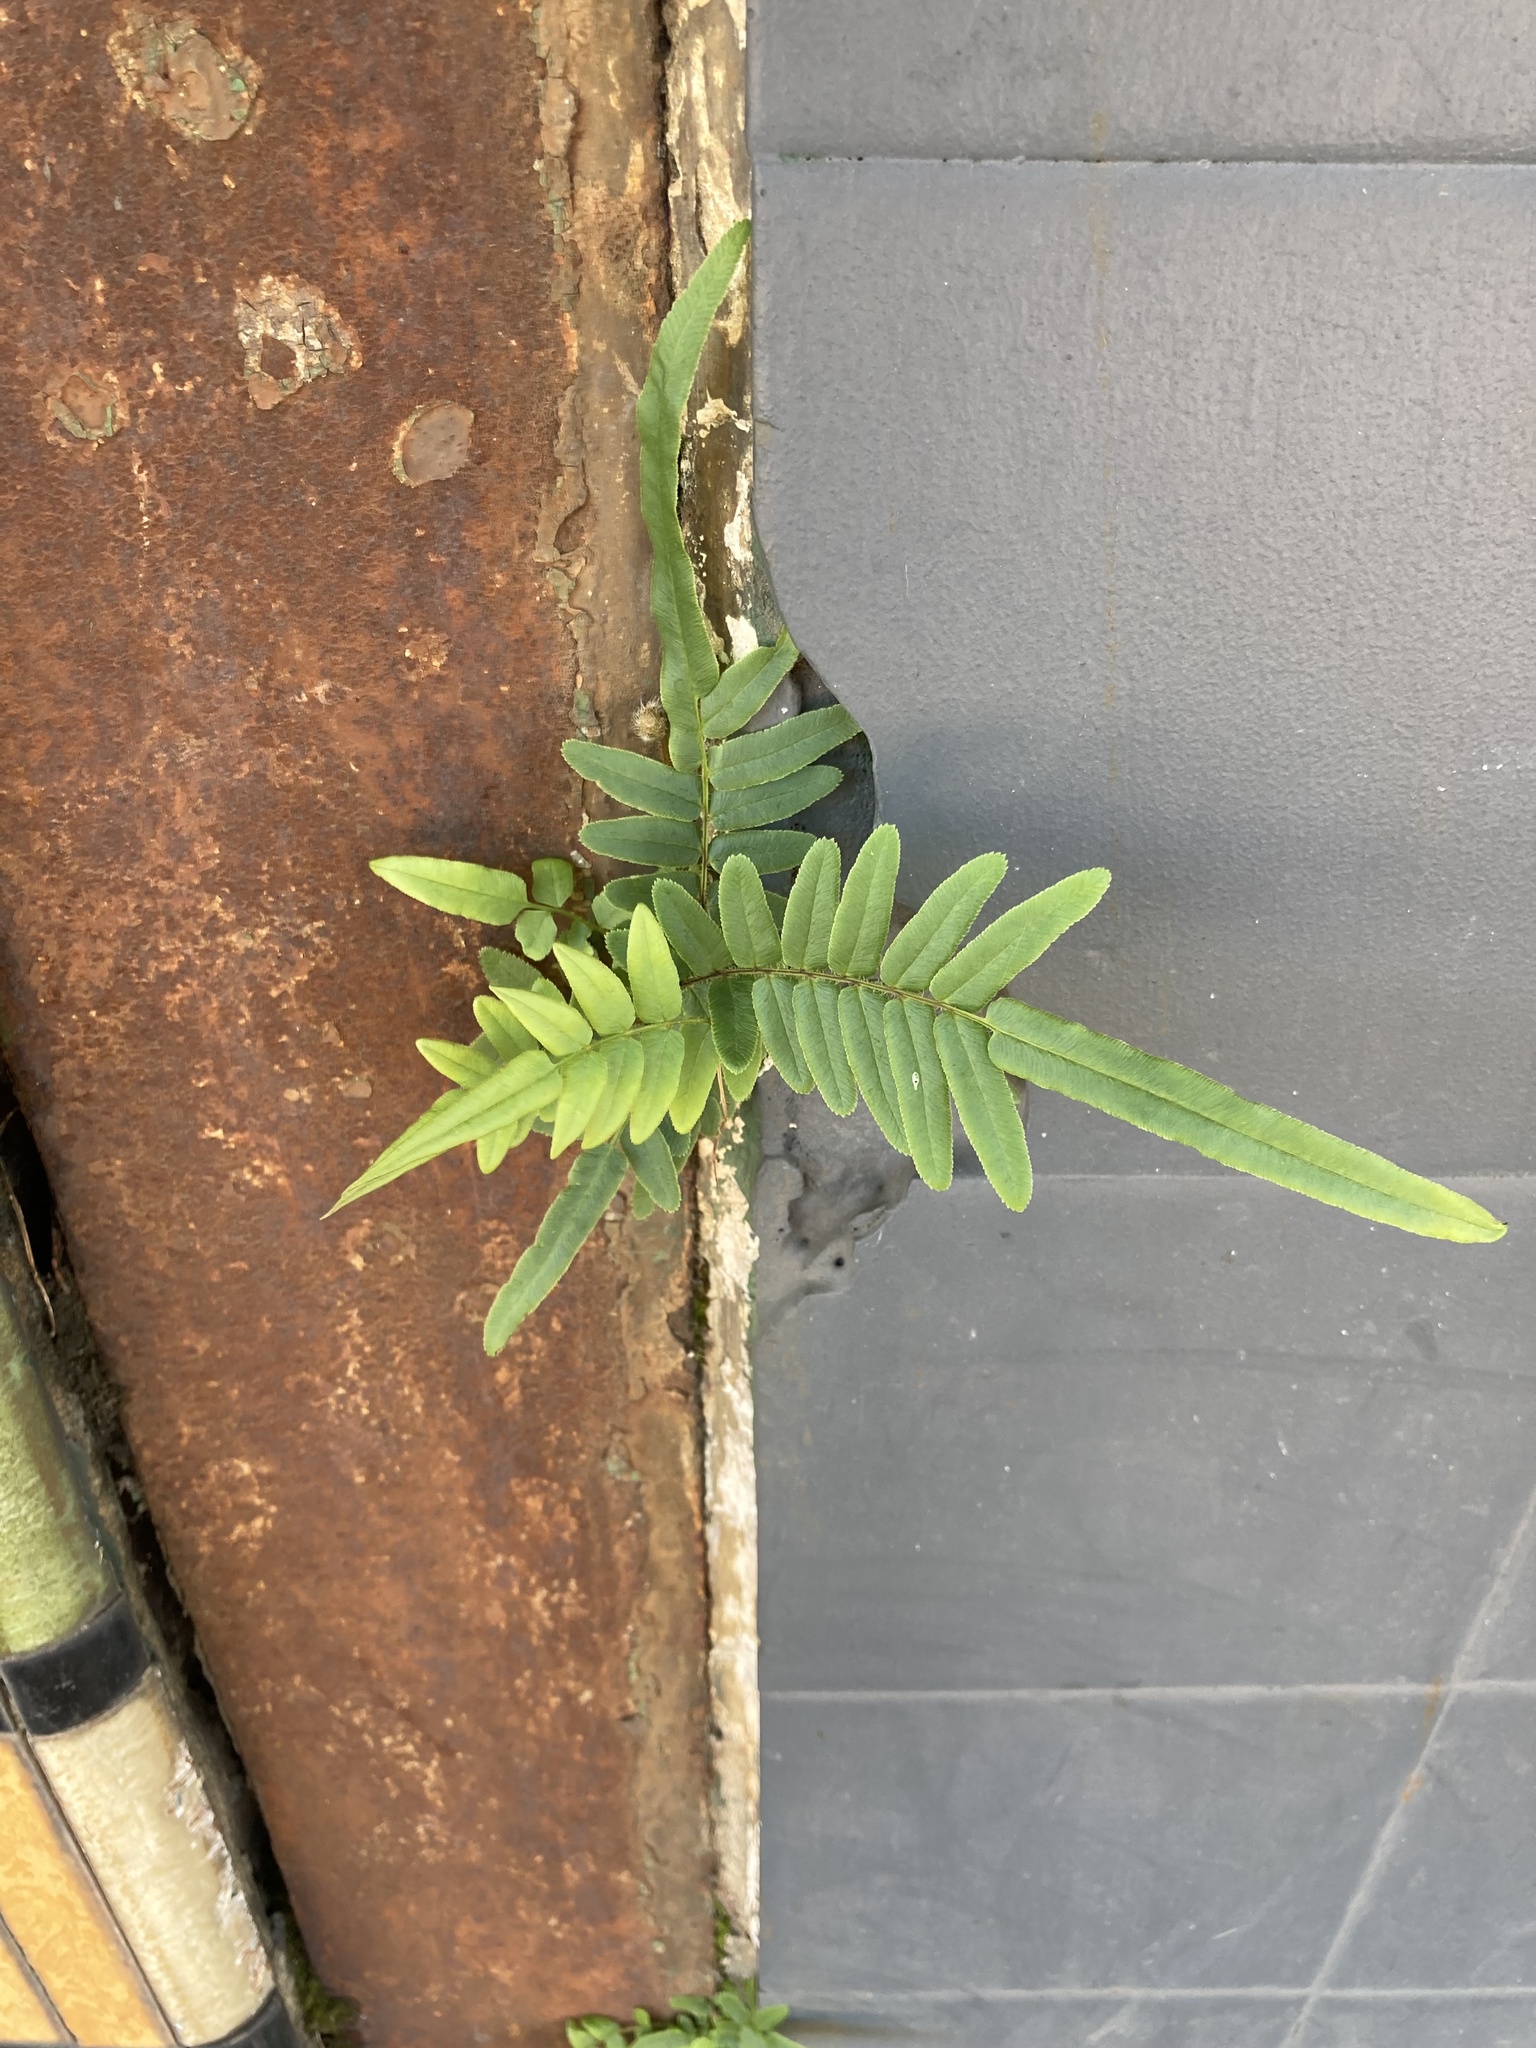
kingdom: Plantae
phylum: Tracheophyta
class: Polypodiopsida
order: Polypodiales
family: Pteridaceae
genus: Pteris
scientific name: Pteris vittata
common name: Ladder brake
